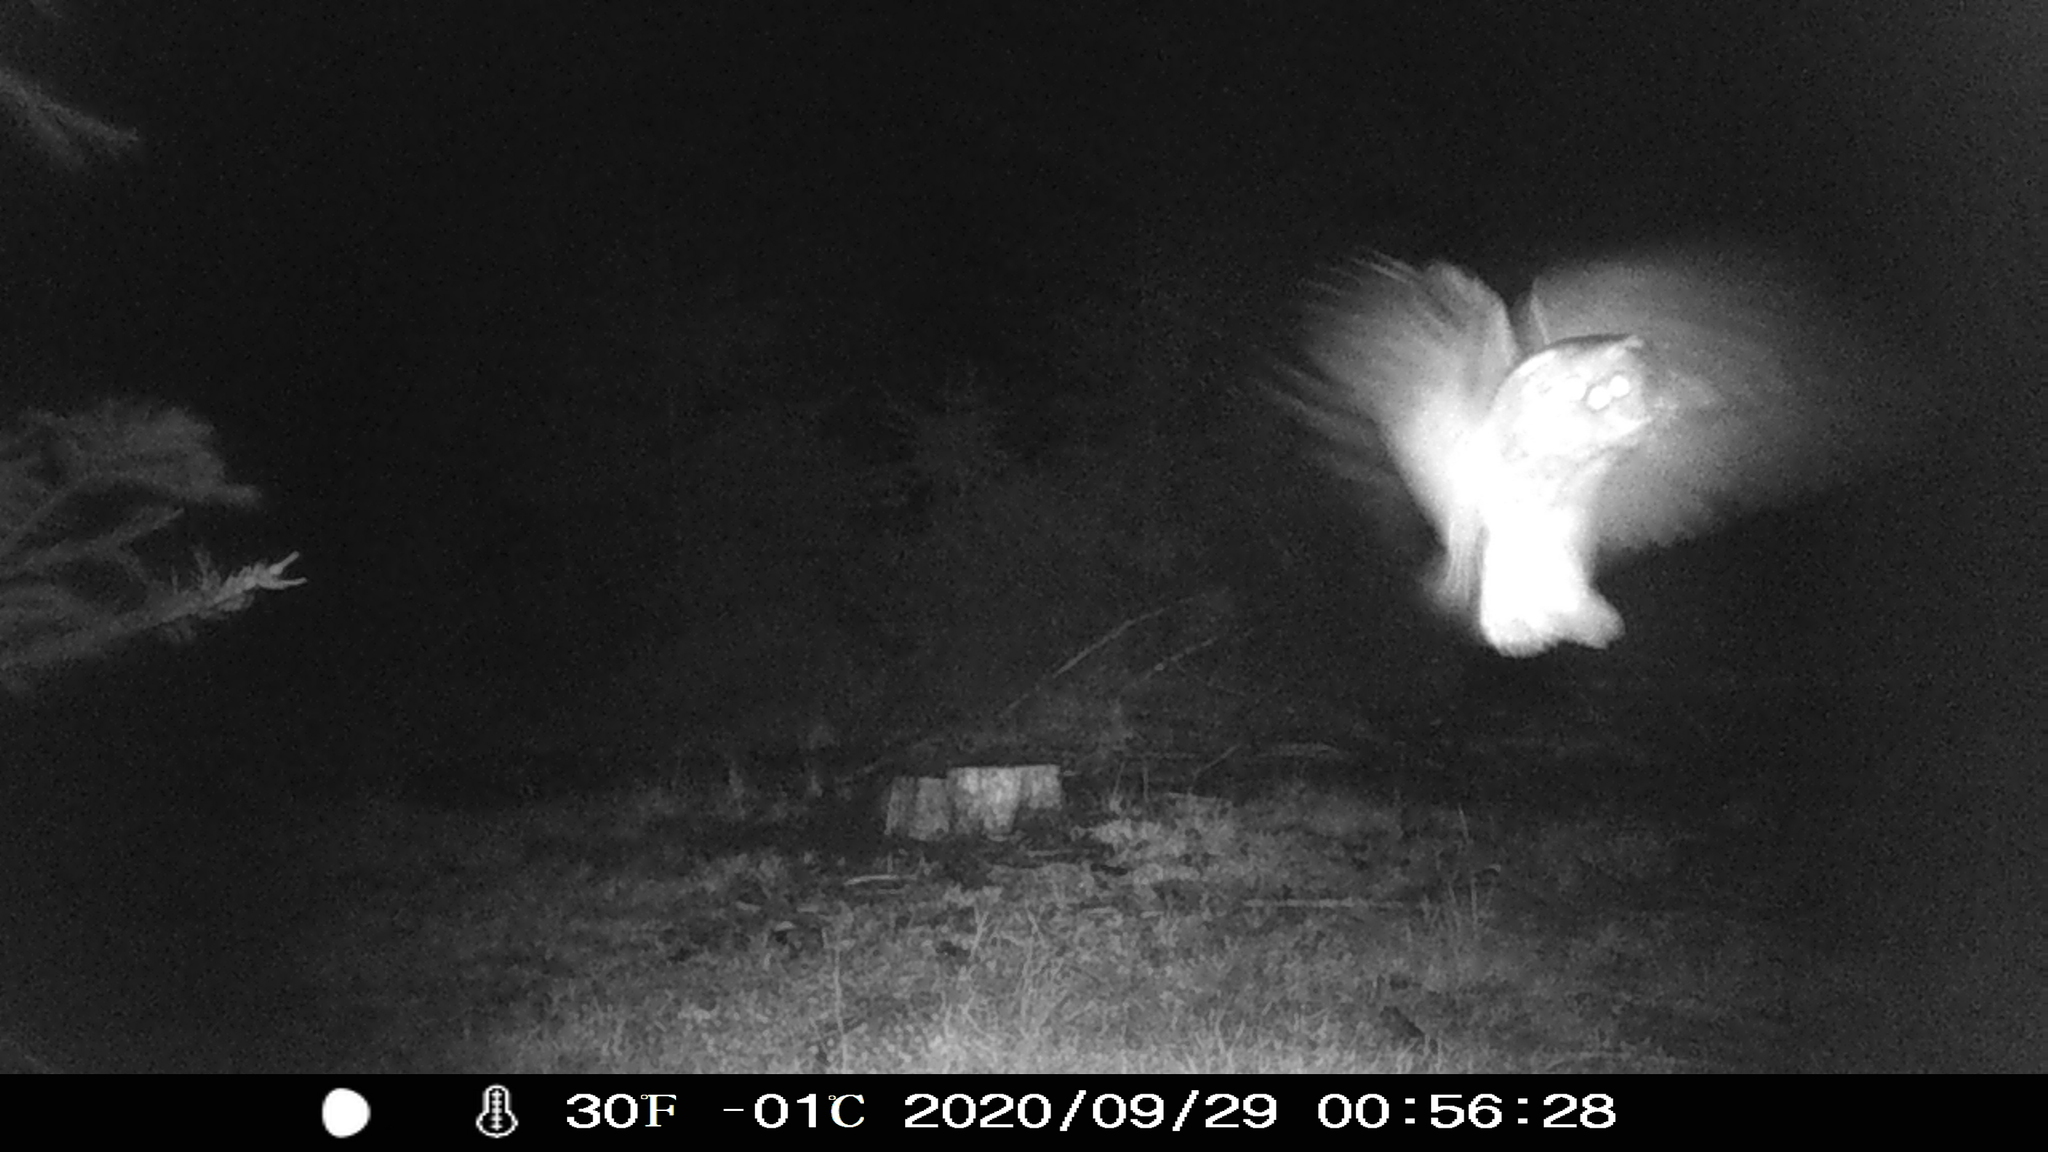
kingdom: Animalia
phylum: Chordata
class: Aves
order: Strigiformes
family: Tytonidae
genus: Tyto
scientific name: Tyto alba
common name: Barn owl
